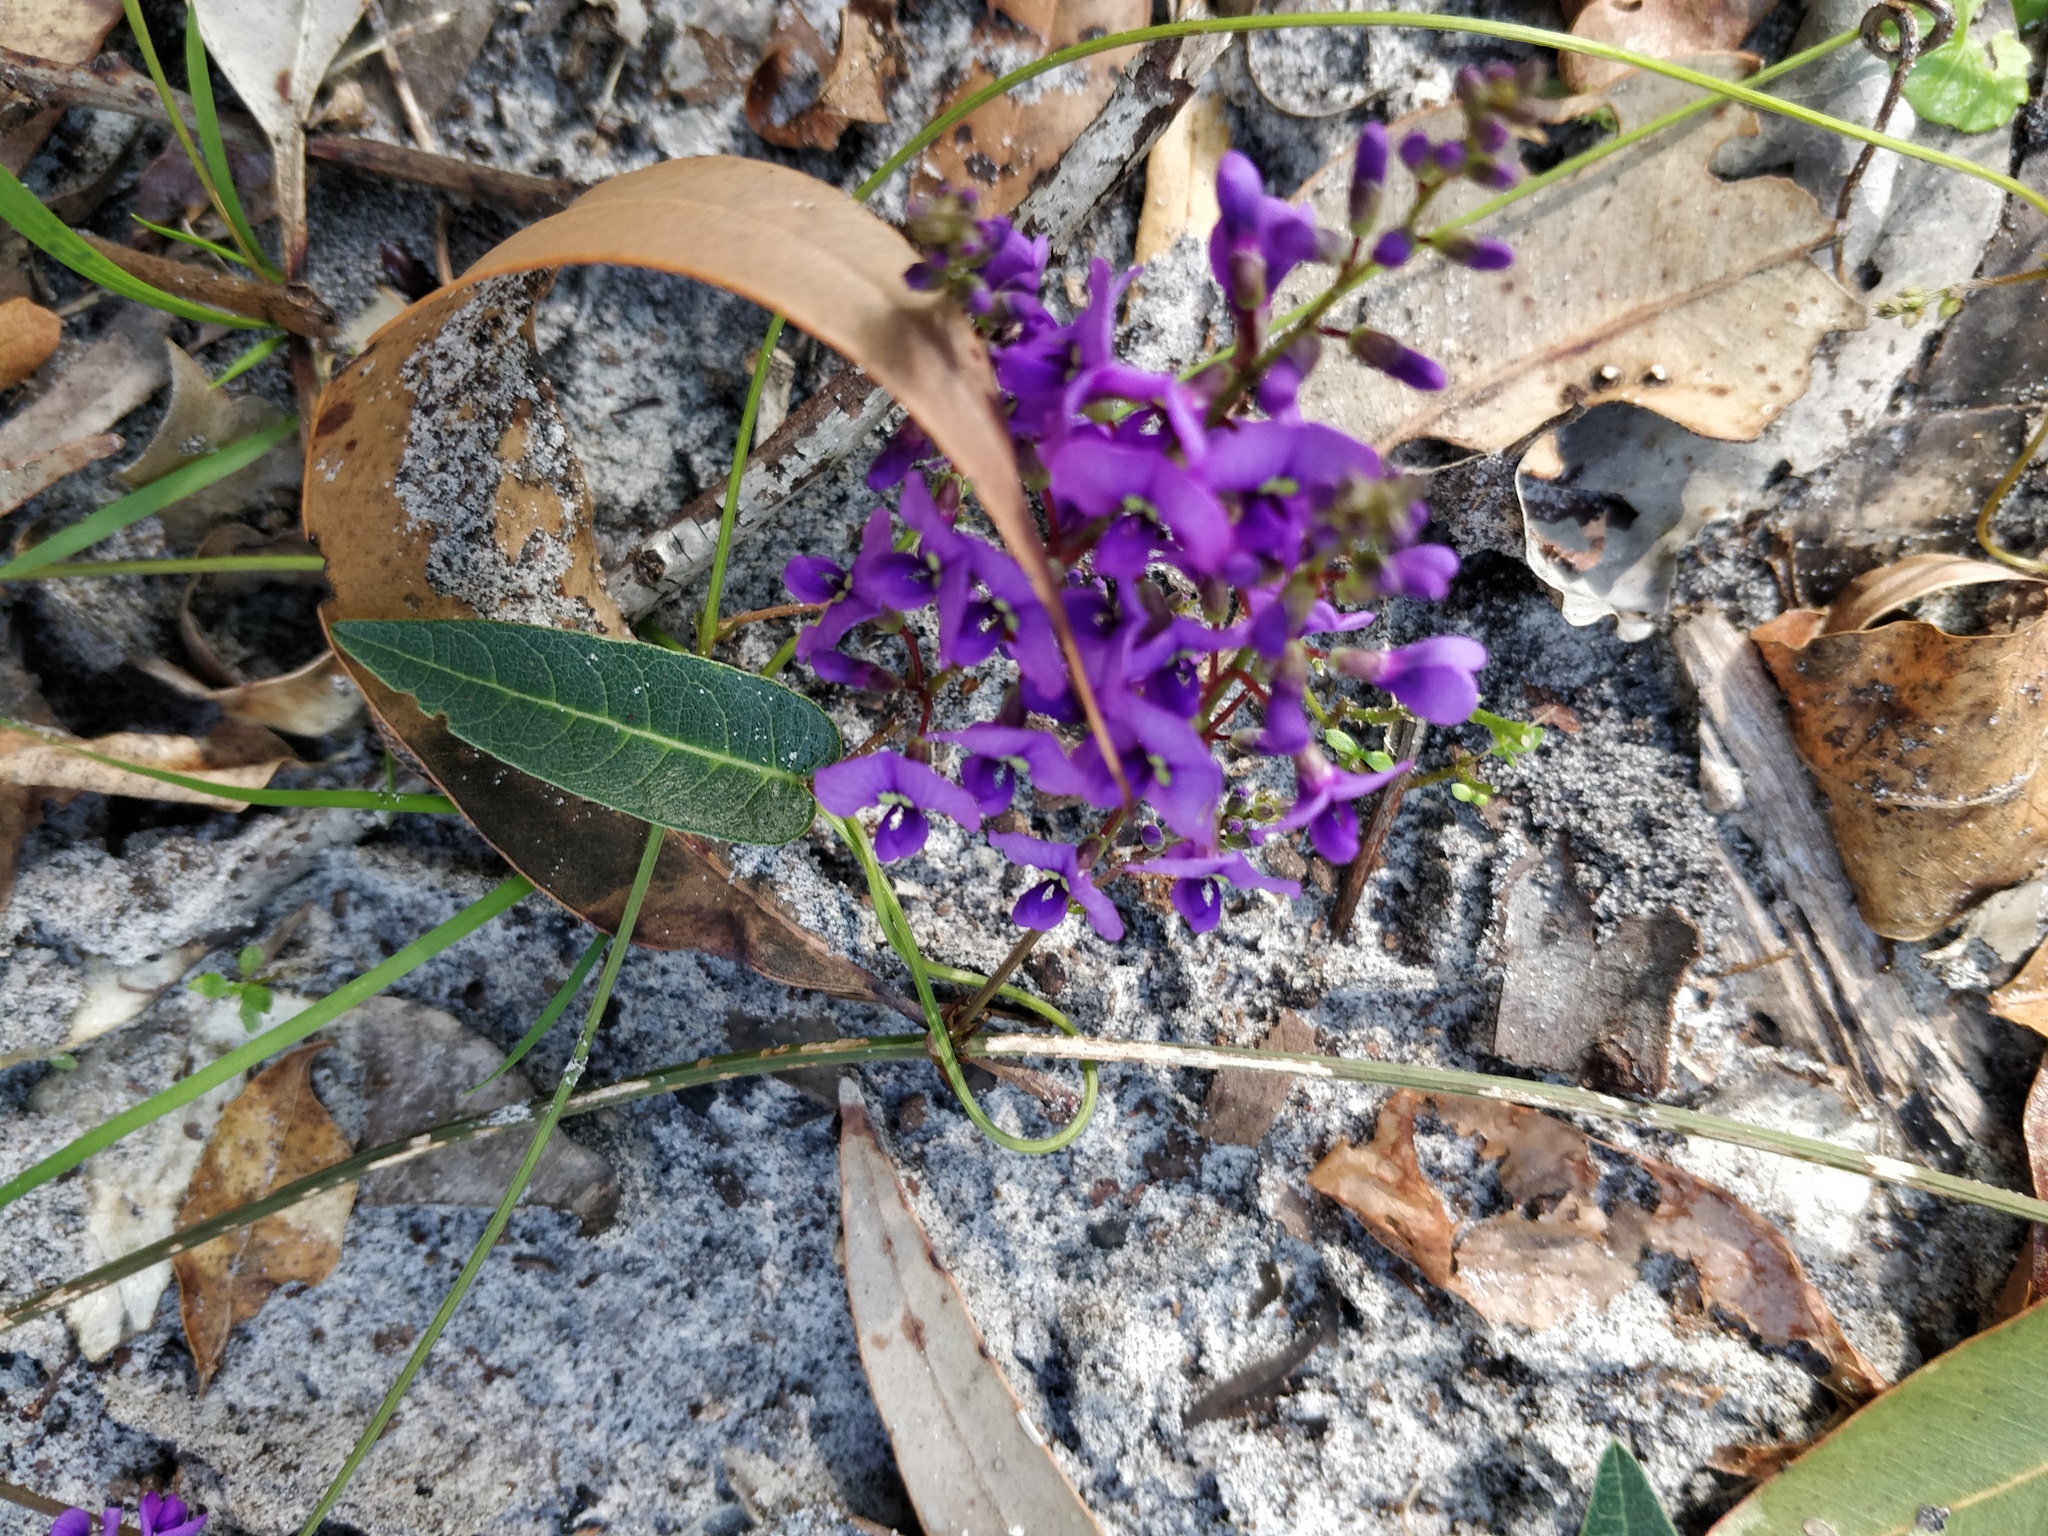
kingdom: Plantae
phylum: Tracheophyta
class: Magnoliopsida
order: Fabales
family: Fabaceae
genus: Hardenbergia
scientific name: Hardenbergia violacea
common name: Coral-pea
